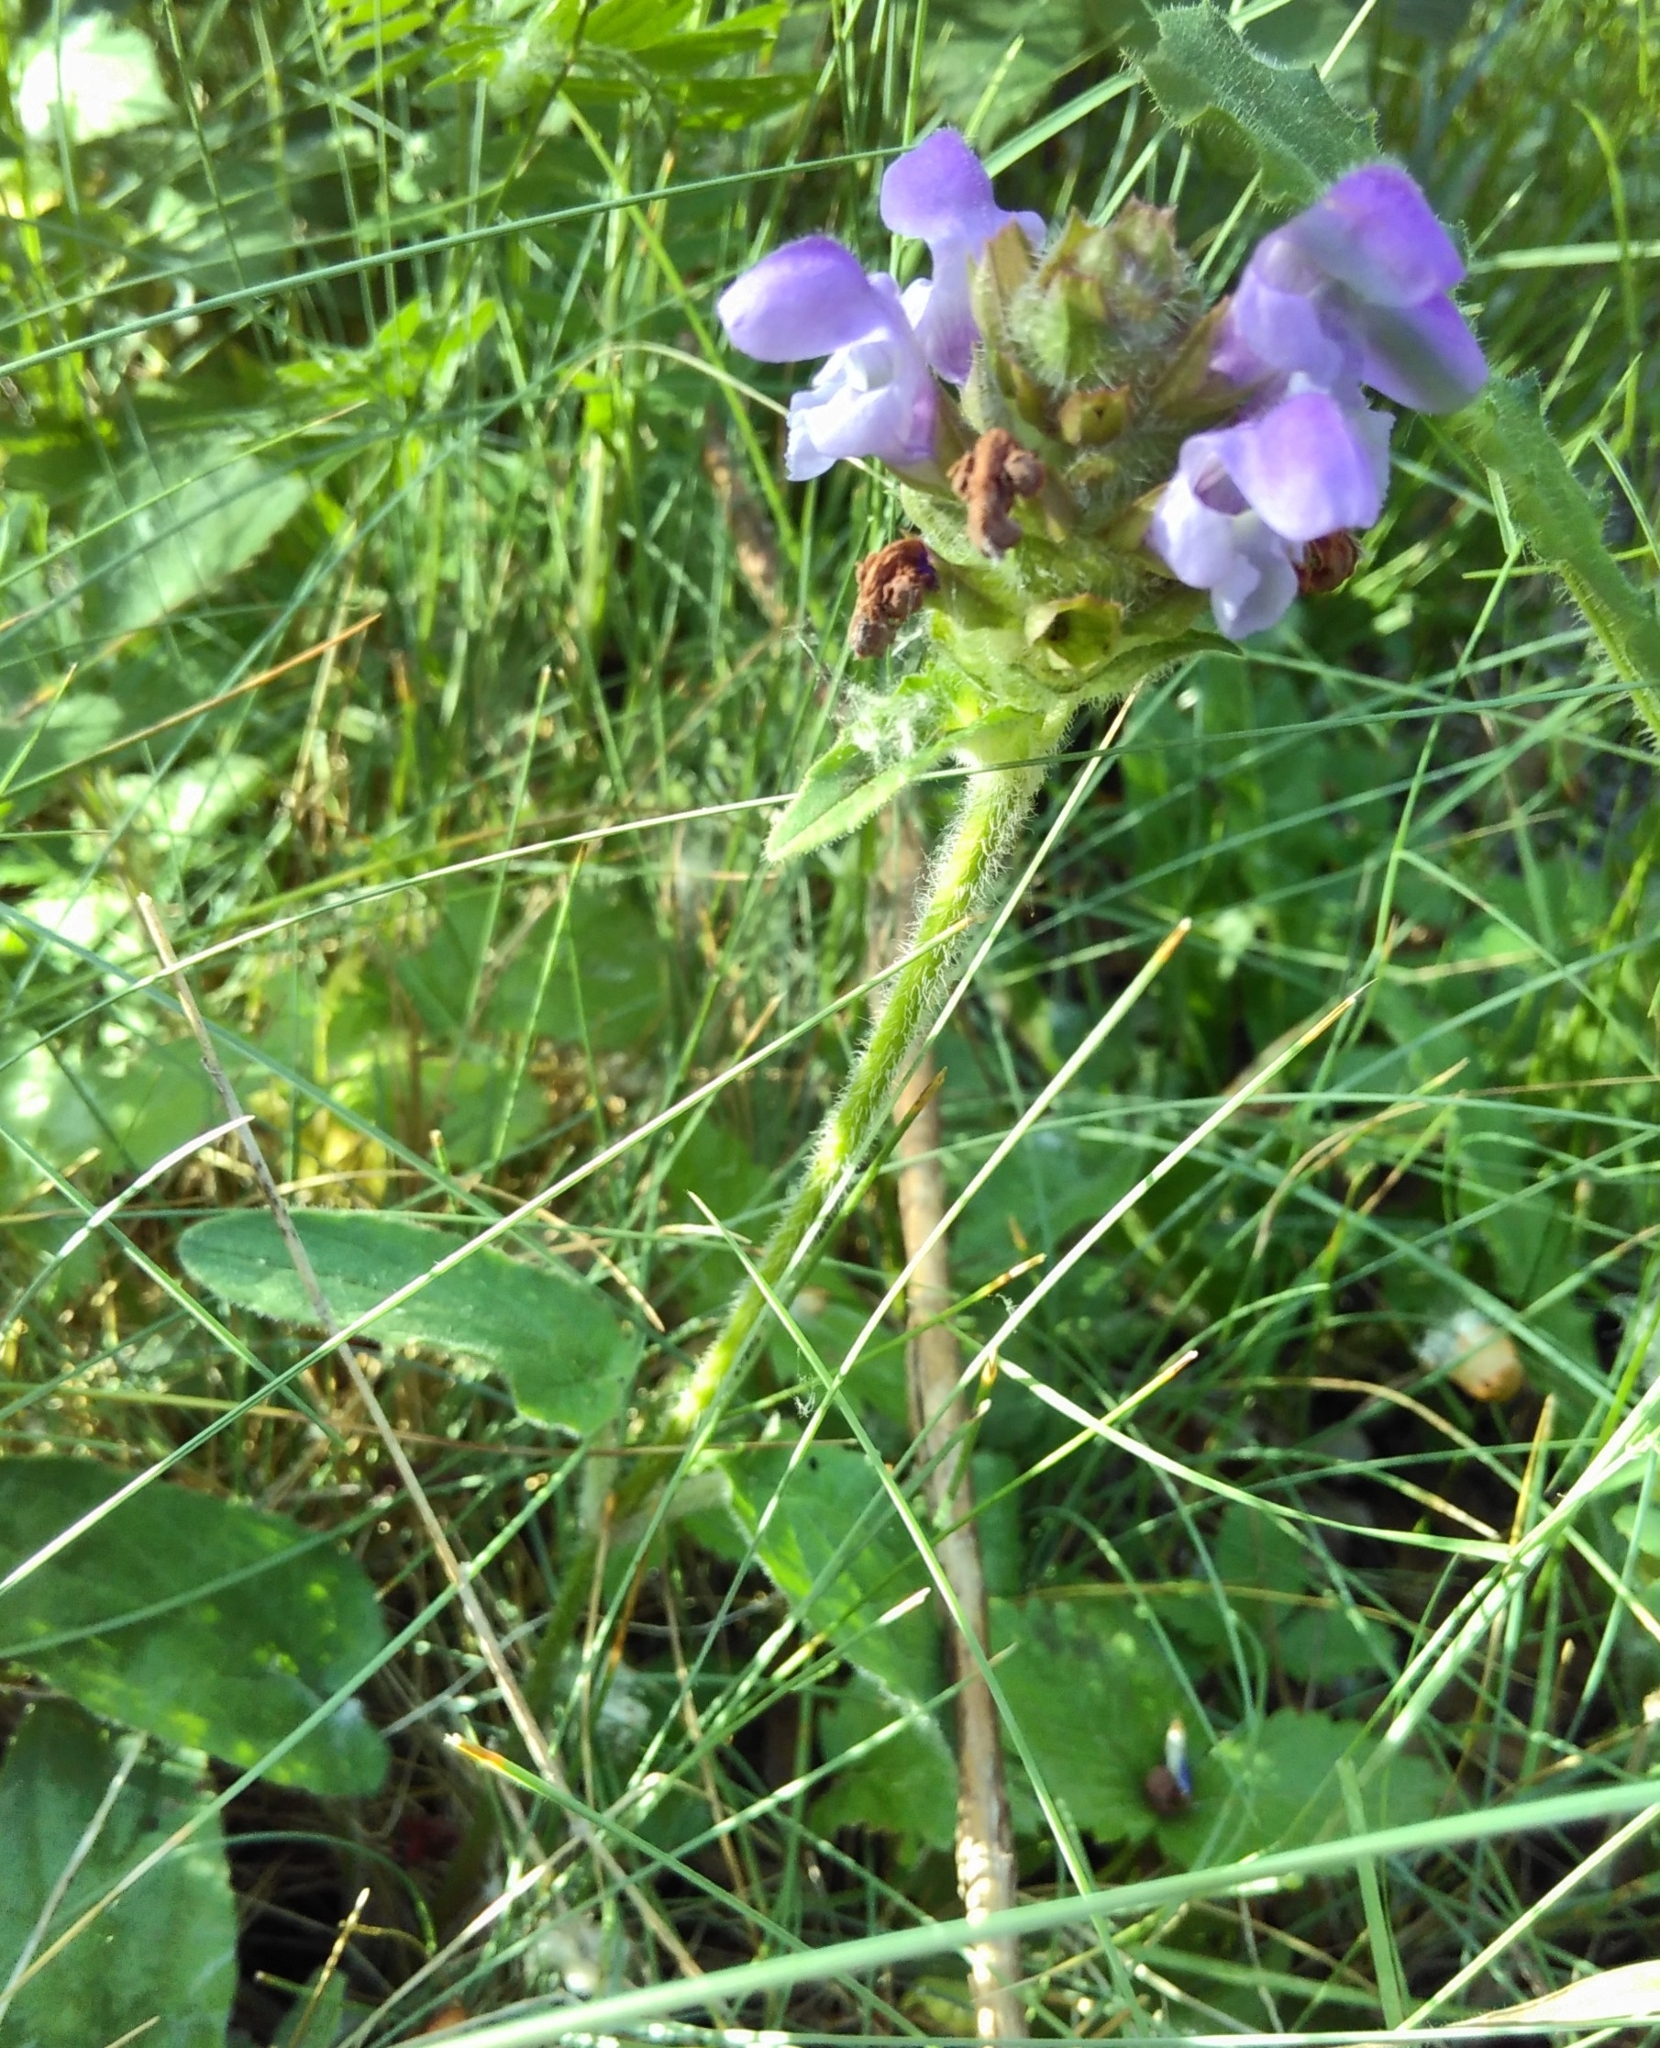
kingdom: Plantae
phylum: Tracheophyta
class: Magnoliopsida
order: Lamiales
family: Lamiaceae
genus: Prunella
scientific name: Prunella grandiflora
